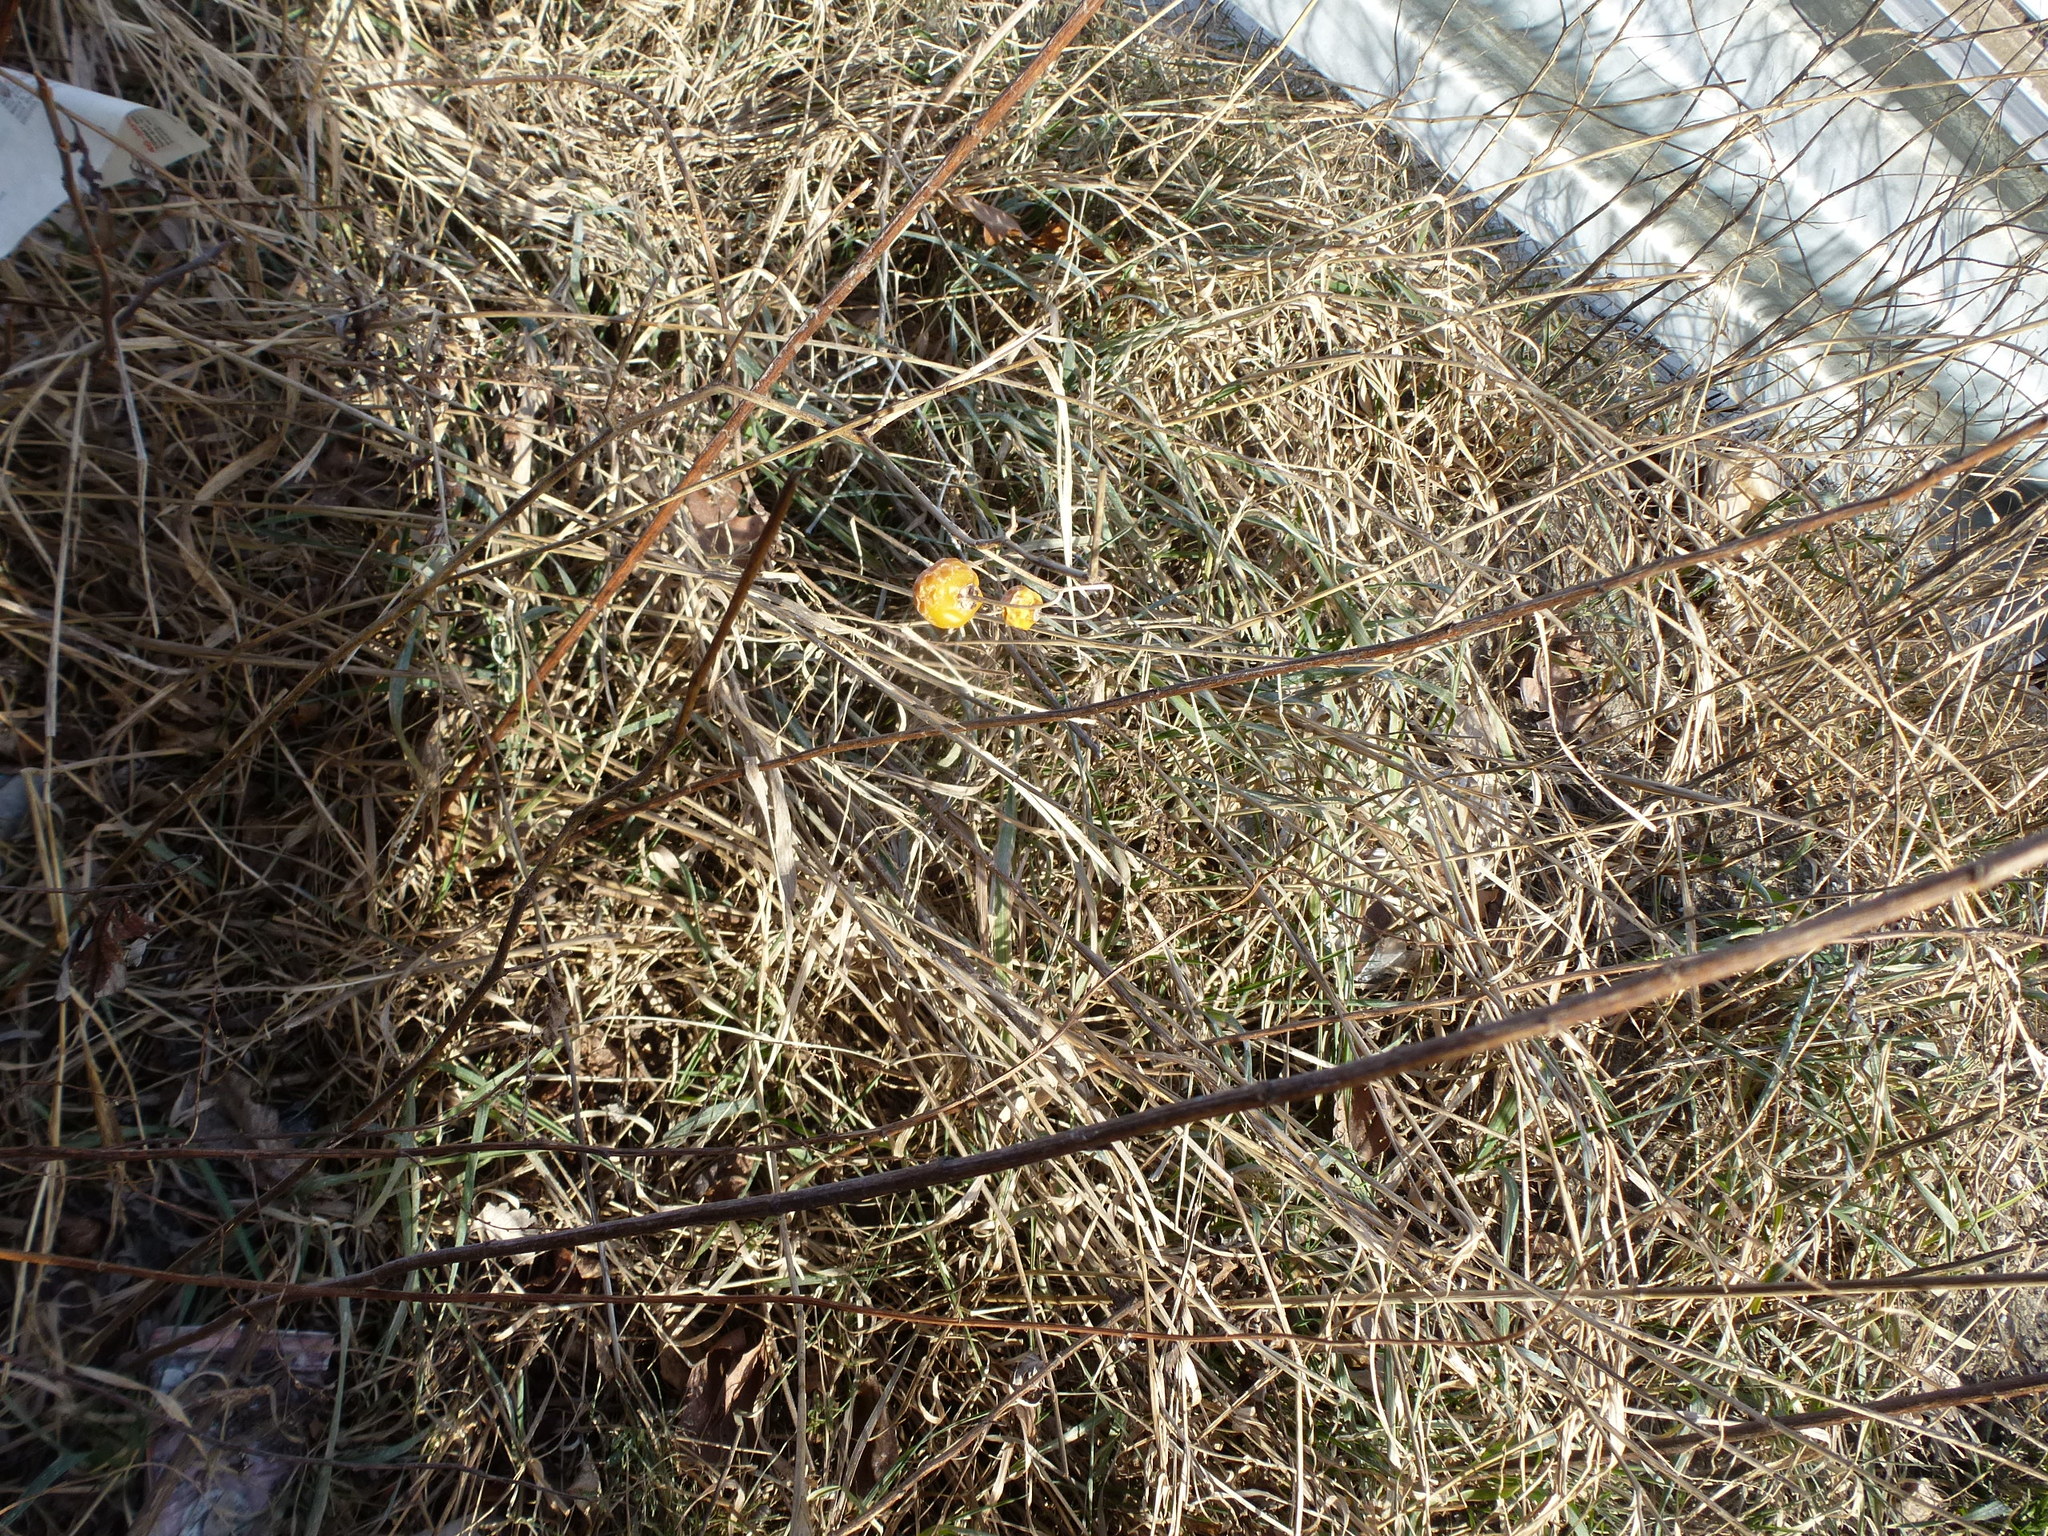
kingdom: Plantae
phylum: Tracheophyta
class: Magnoliopsida
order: Solanales
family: Solanaceae
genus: Solanum
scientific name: Solanum carolinense
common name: Horse-nettle
